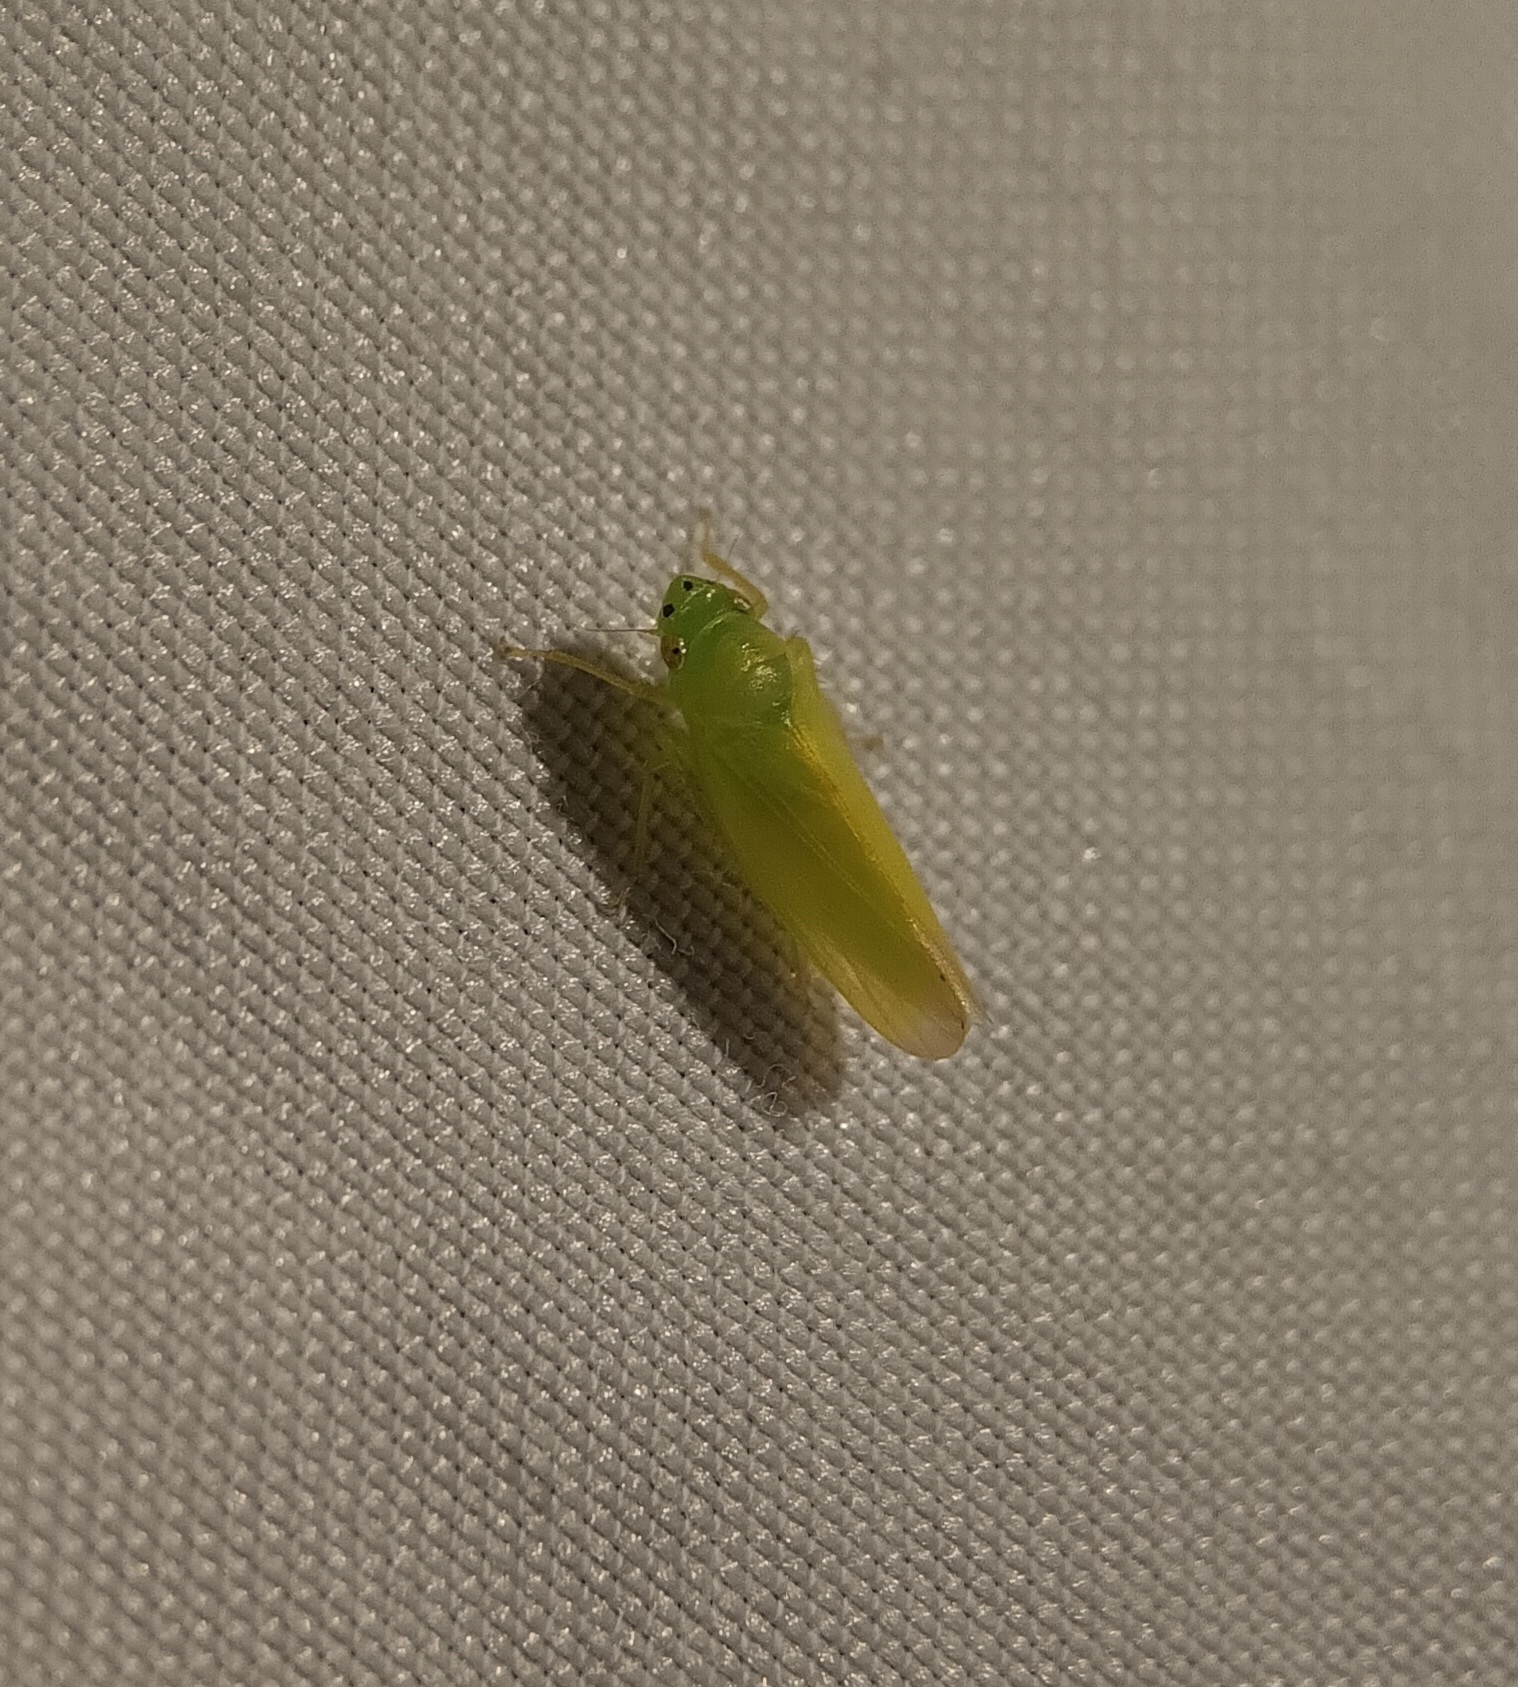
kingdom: Animalia
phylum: Arthropoda
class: Insecta
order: Hemiptera
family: Cicadellidae
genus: Pagaronia
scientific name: Pagaronia minor
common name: Leafhopper
